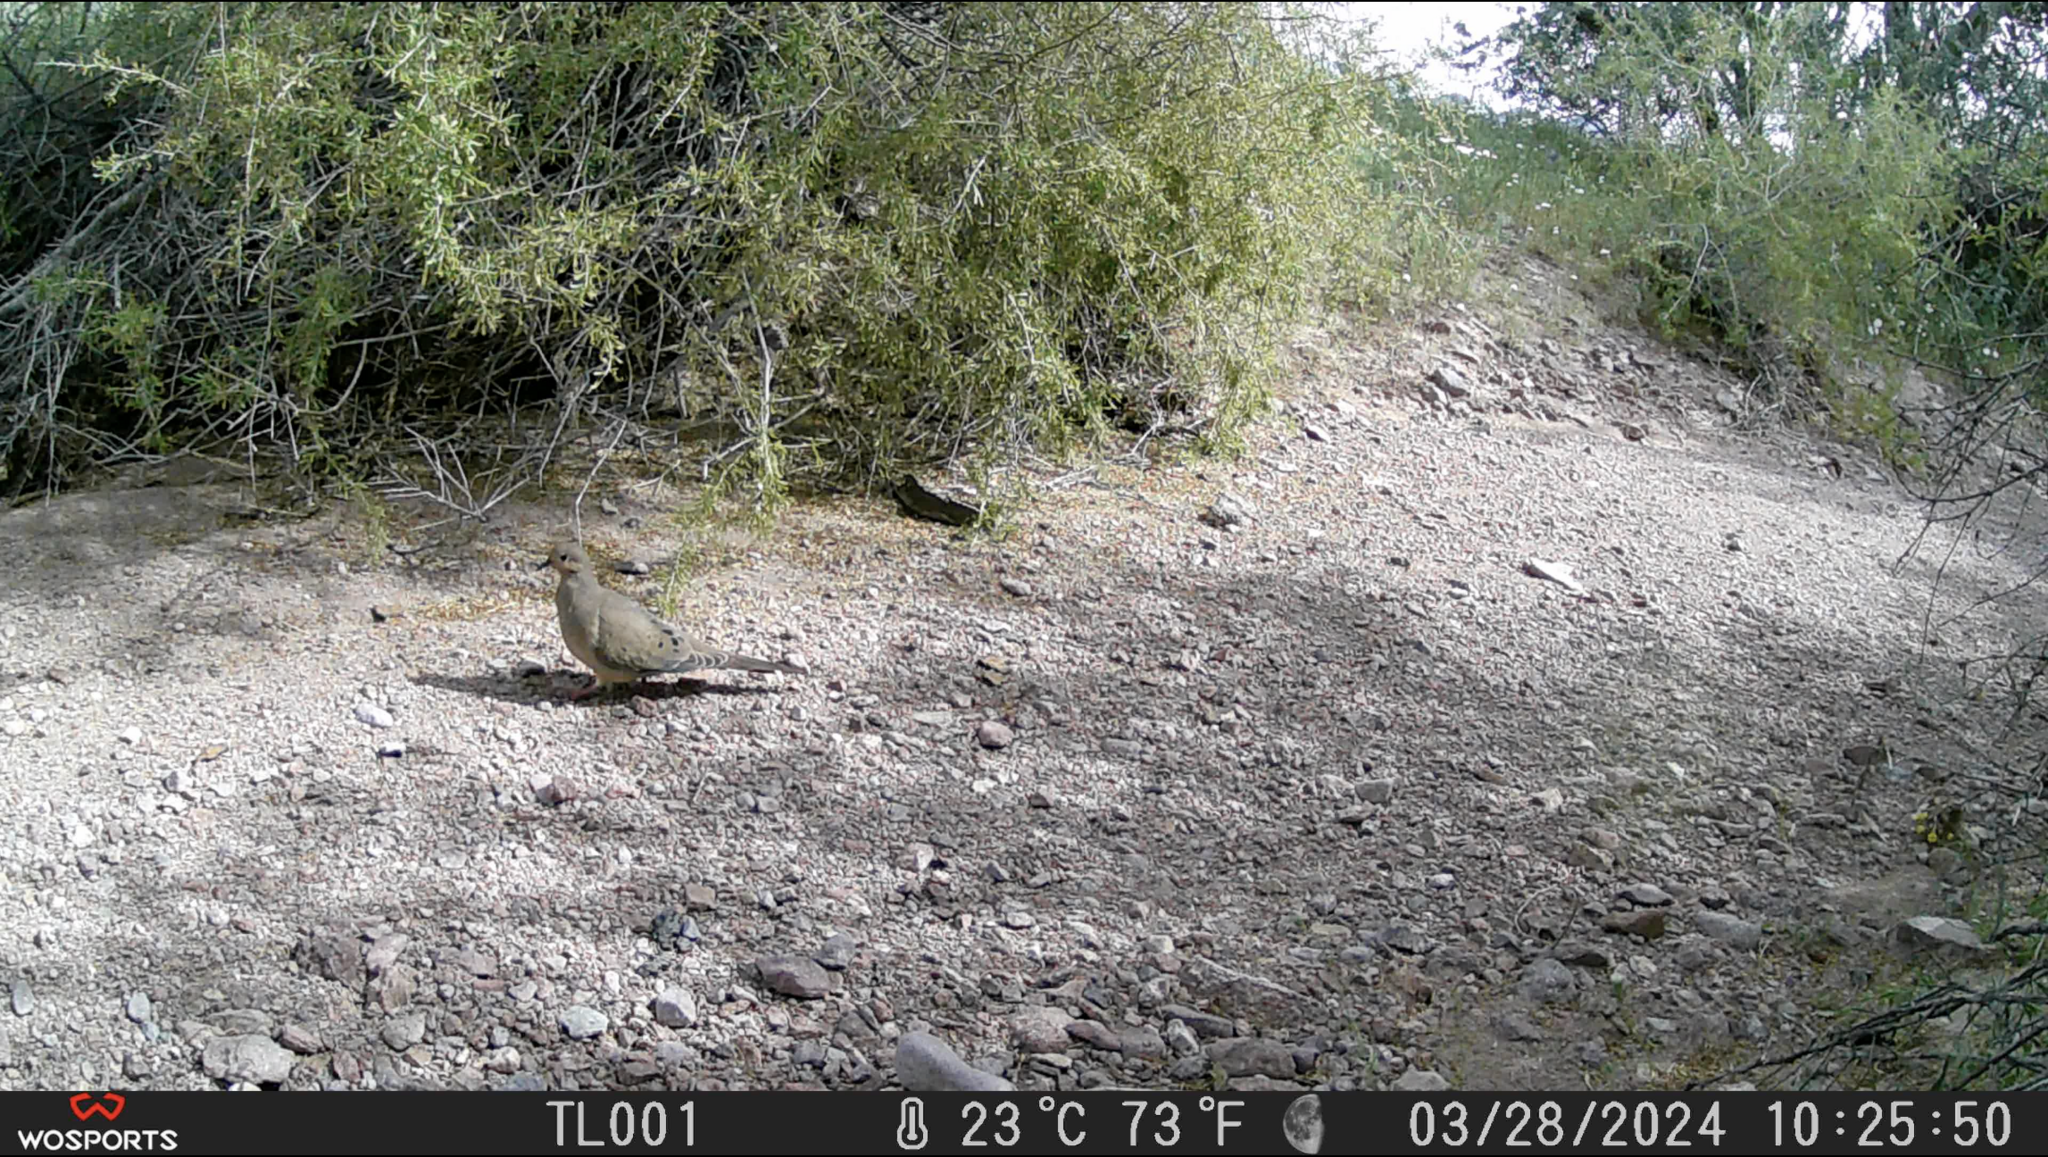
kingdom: Animalia
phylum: Chordata
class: Aves
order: Columbiformes
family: Columbidae
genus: Zenaida
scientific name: Zenaida macroura
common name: Mourning dove
